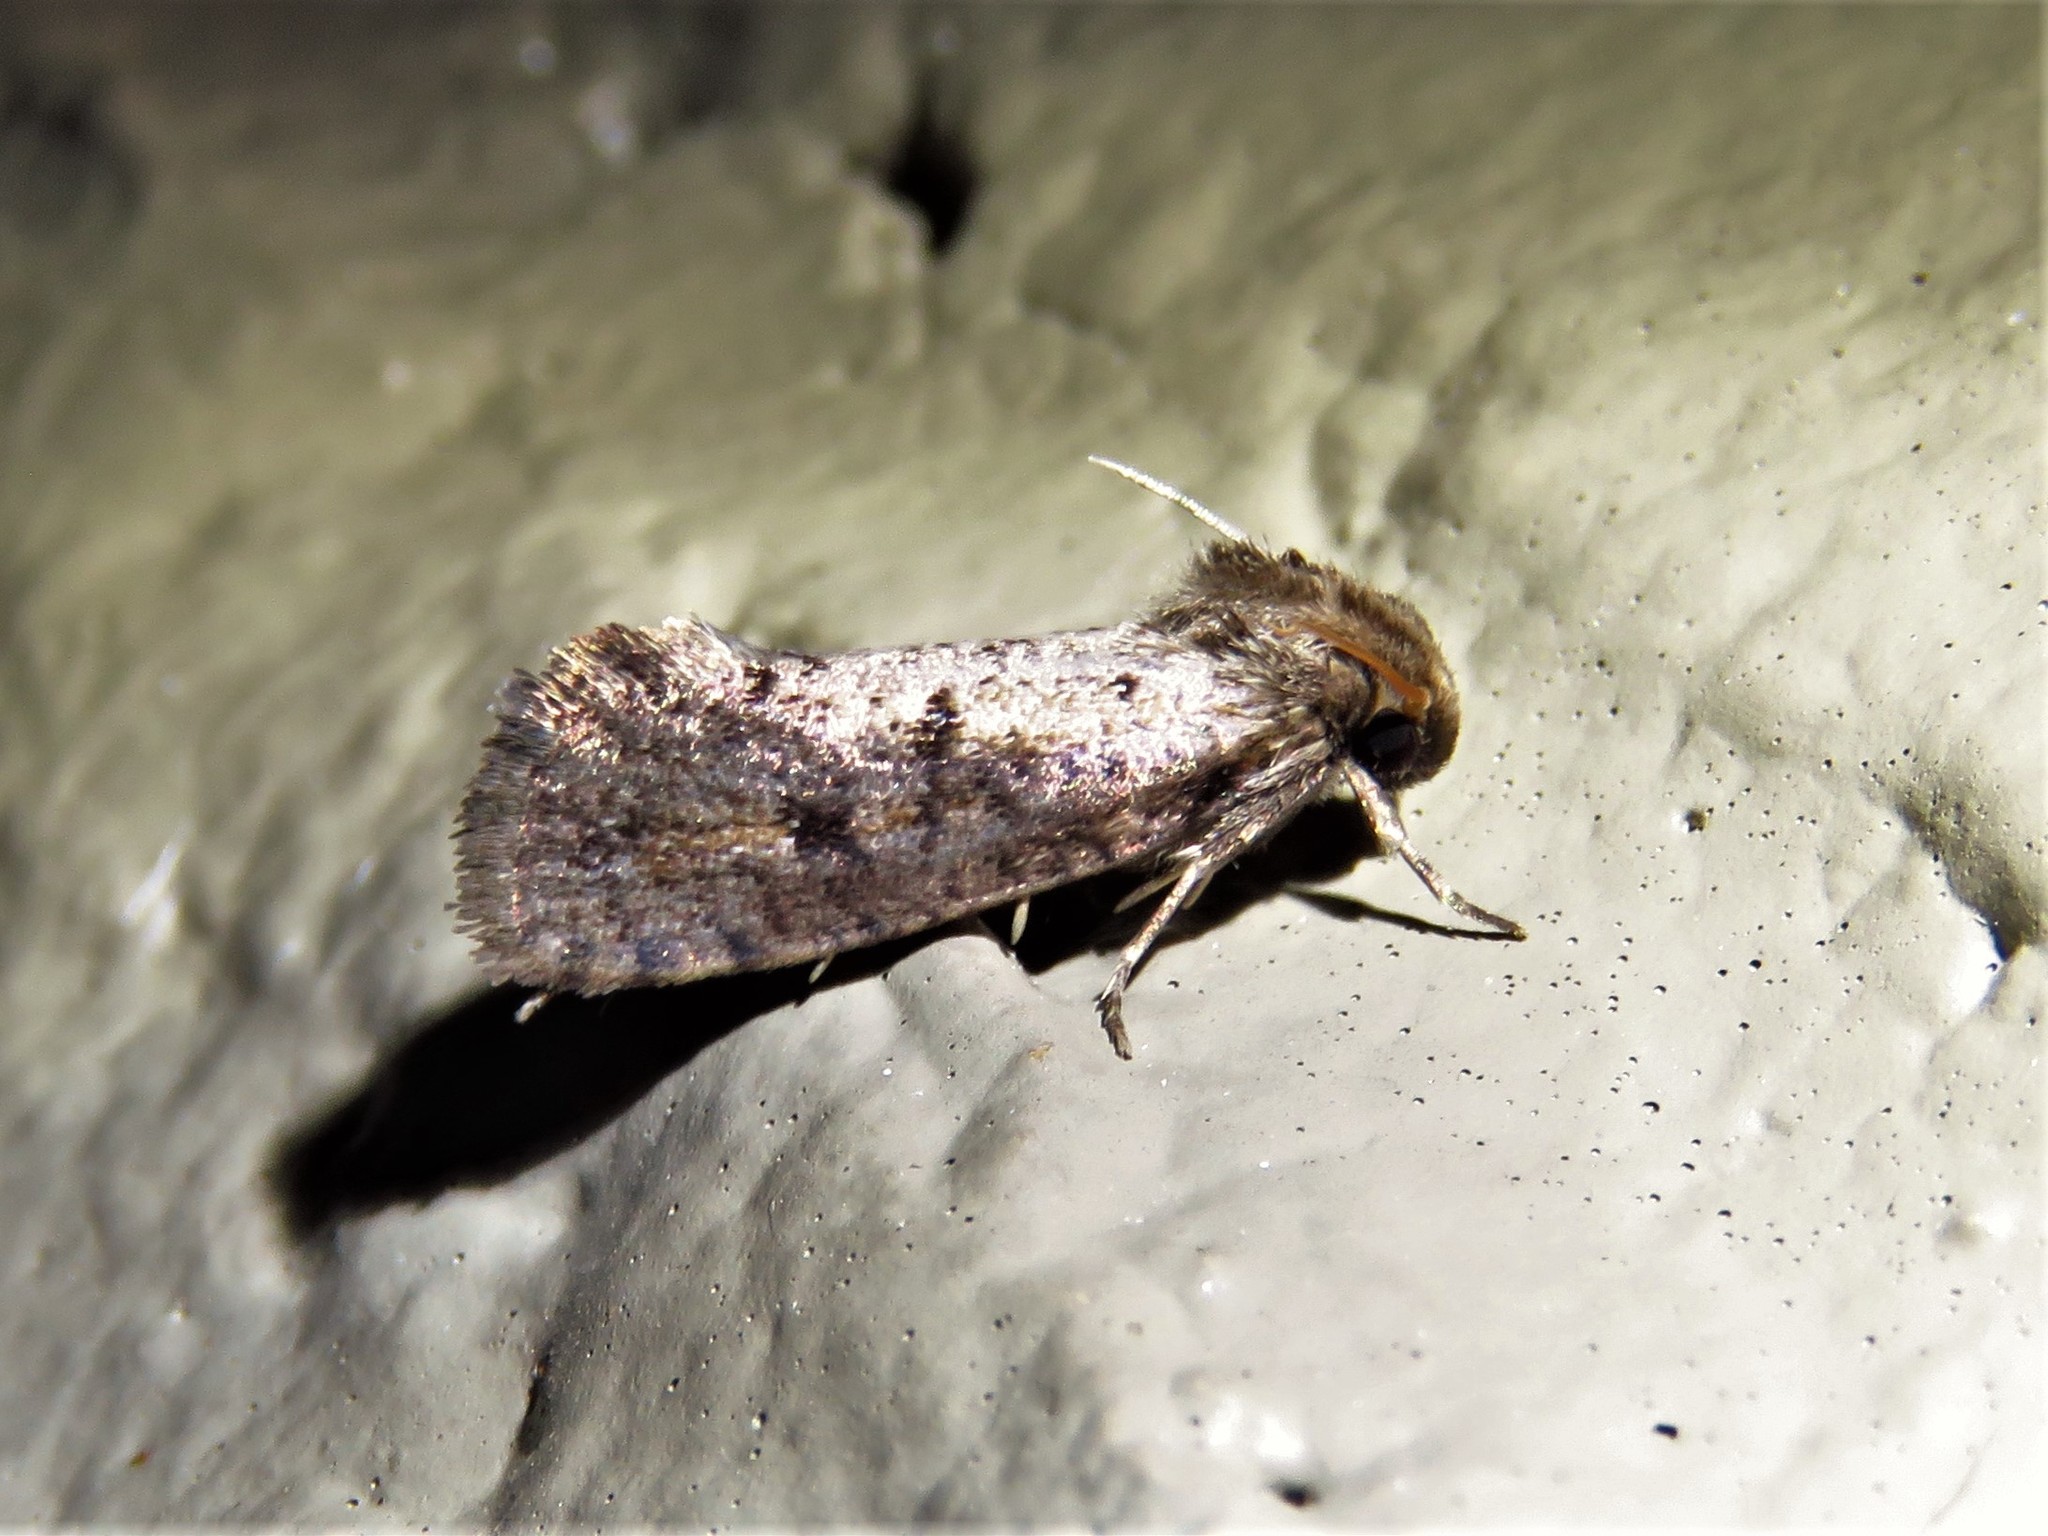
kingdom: Animalia
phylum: Arthropoda
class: Insecta
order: Lepidoptera
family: Tineidae
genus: Acrolophus
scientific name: Acrolophus popeanella
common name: Clemens' grass tubeworm moth
